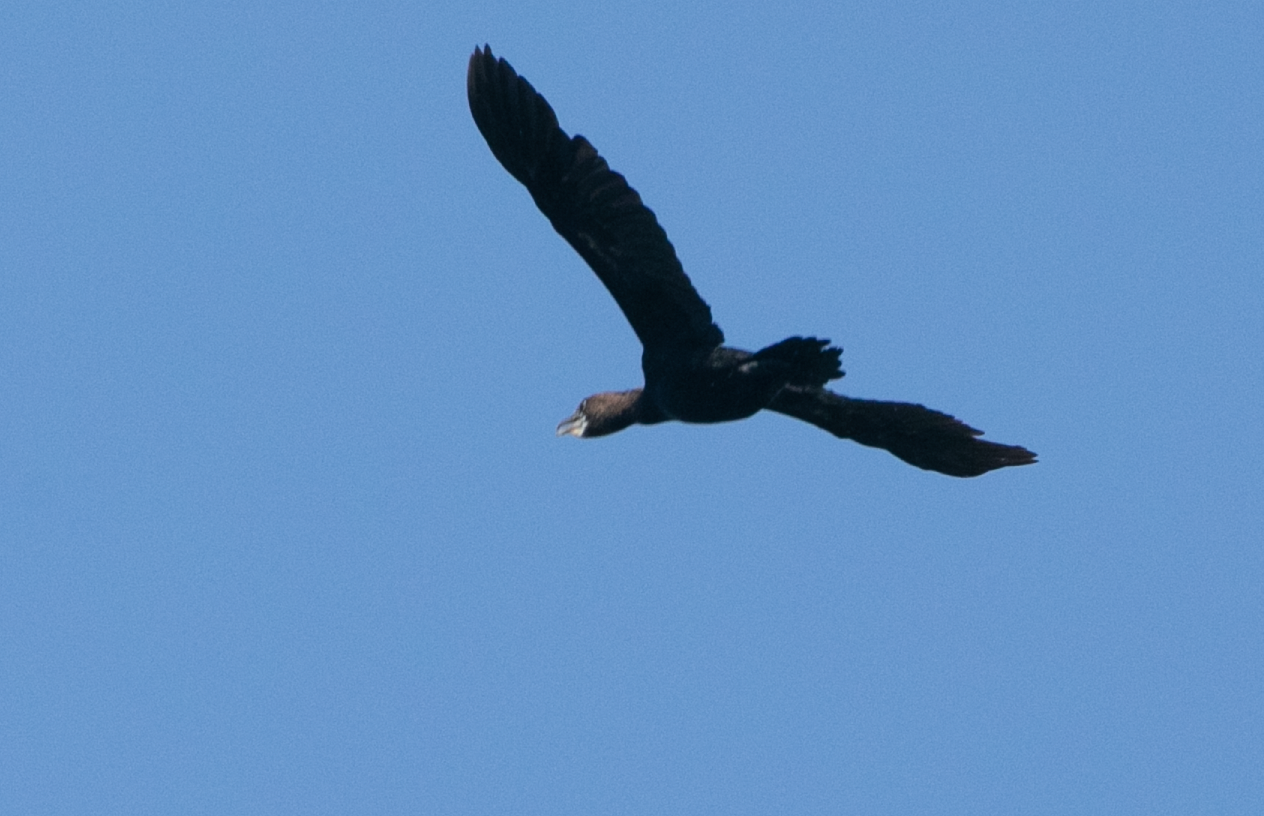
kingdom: Animalia
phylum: Chordata
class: Aves
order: Suliformes
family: Phalacrocoracidae
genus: Microcarbo
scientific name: Microcarbo pygmaeus
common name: Pygmy cormorant
